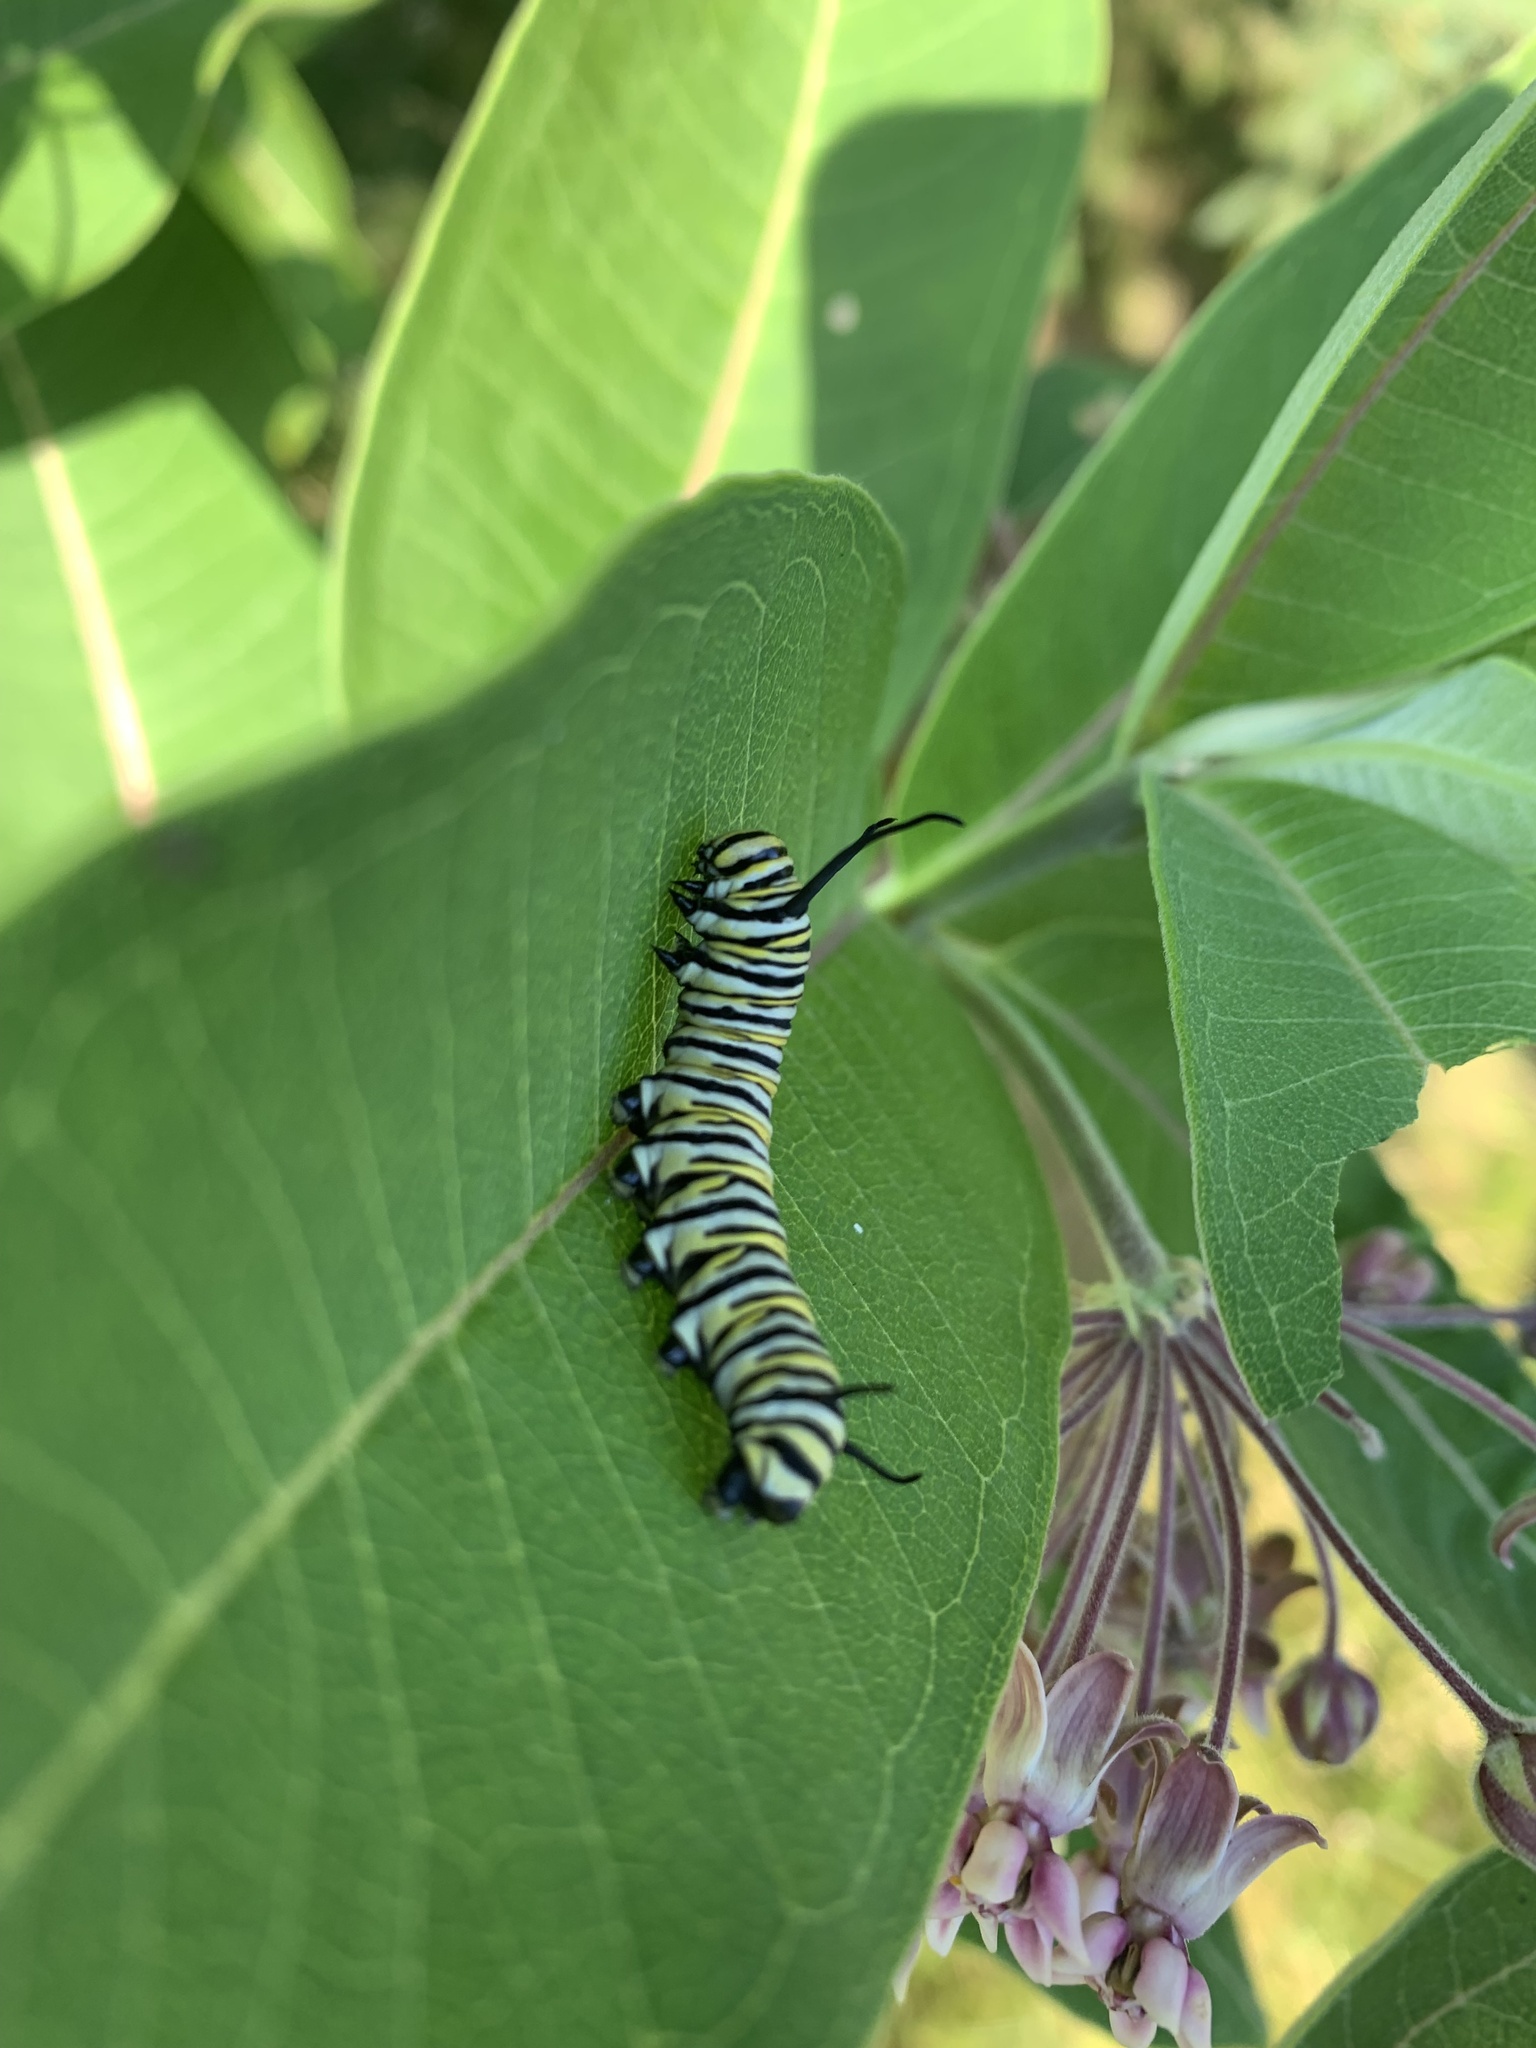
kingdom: Animalia
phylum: Arthropoda
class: Insecta
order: Lepidoptera
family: Nymphalidae
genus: Danaus
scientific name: Danaus plexippus
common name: Monarch
